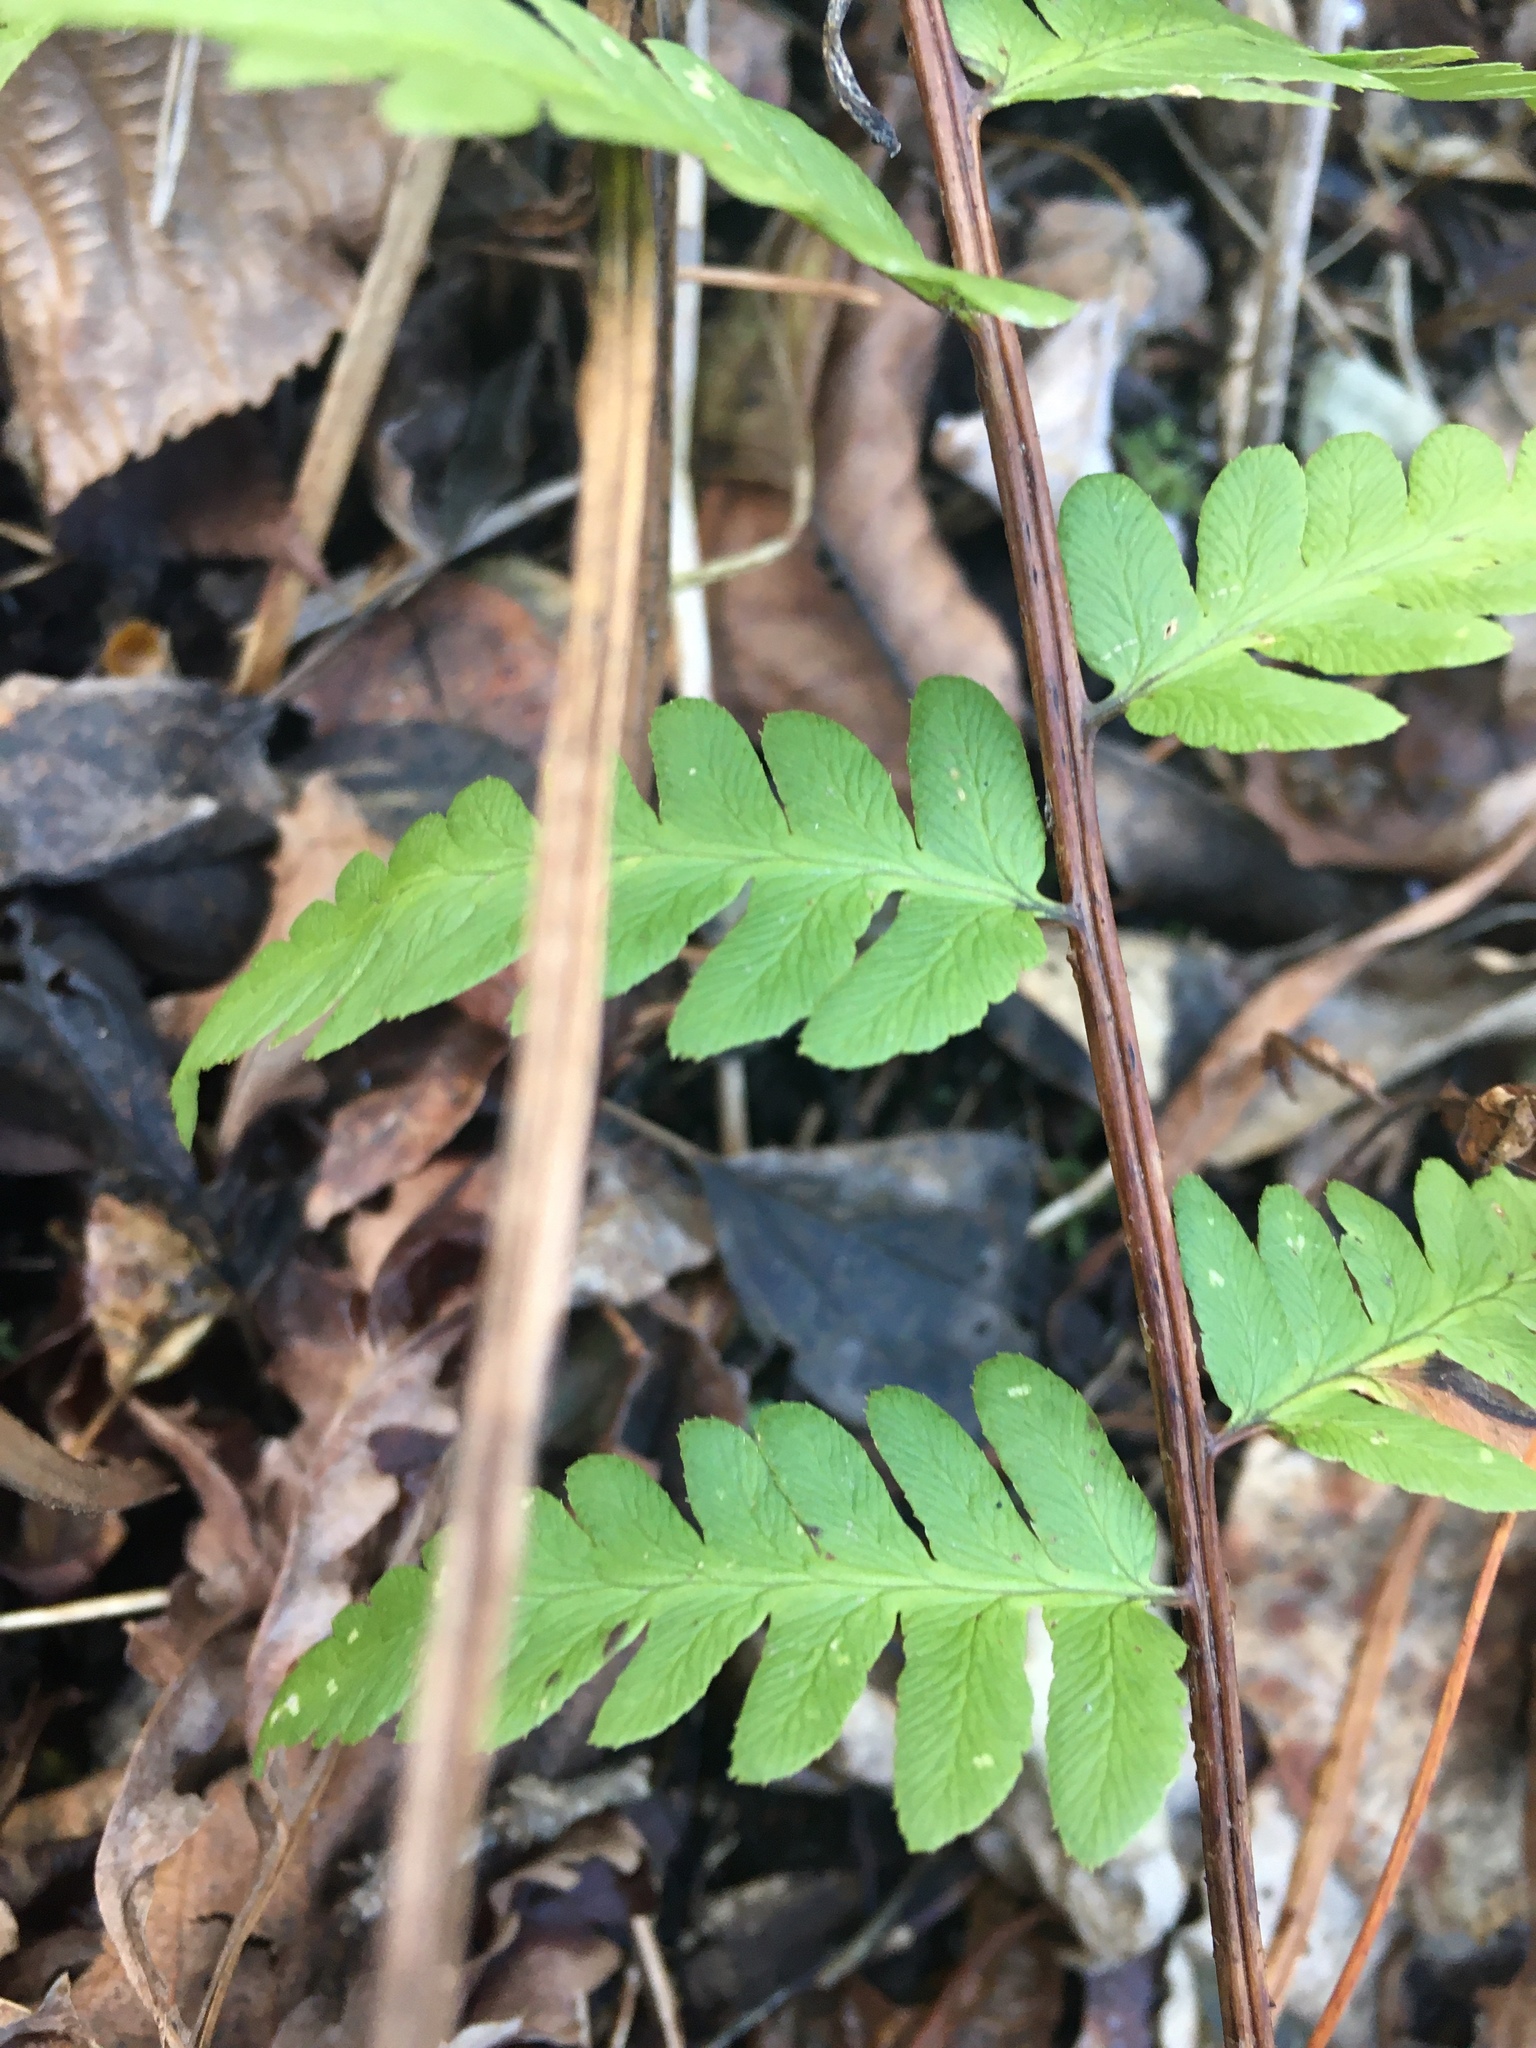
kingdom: Plantae
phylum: Tracheophyta
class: Polypodiopsida
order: Polypodiales
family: Dryopteridaceae
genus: Dryopteris
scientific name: Dryopteris cristata
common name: Crested wood fern
